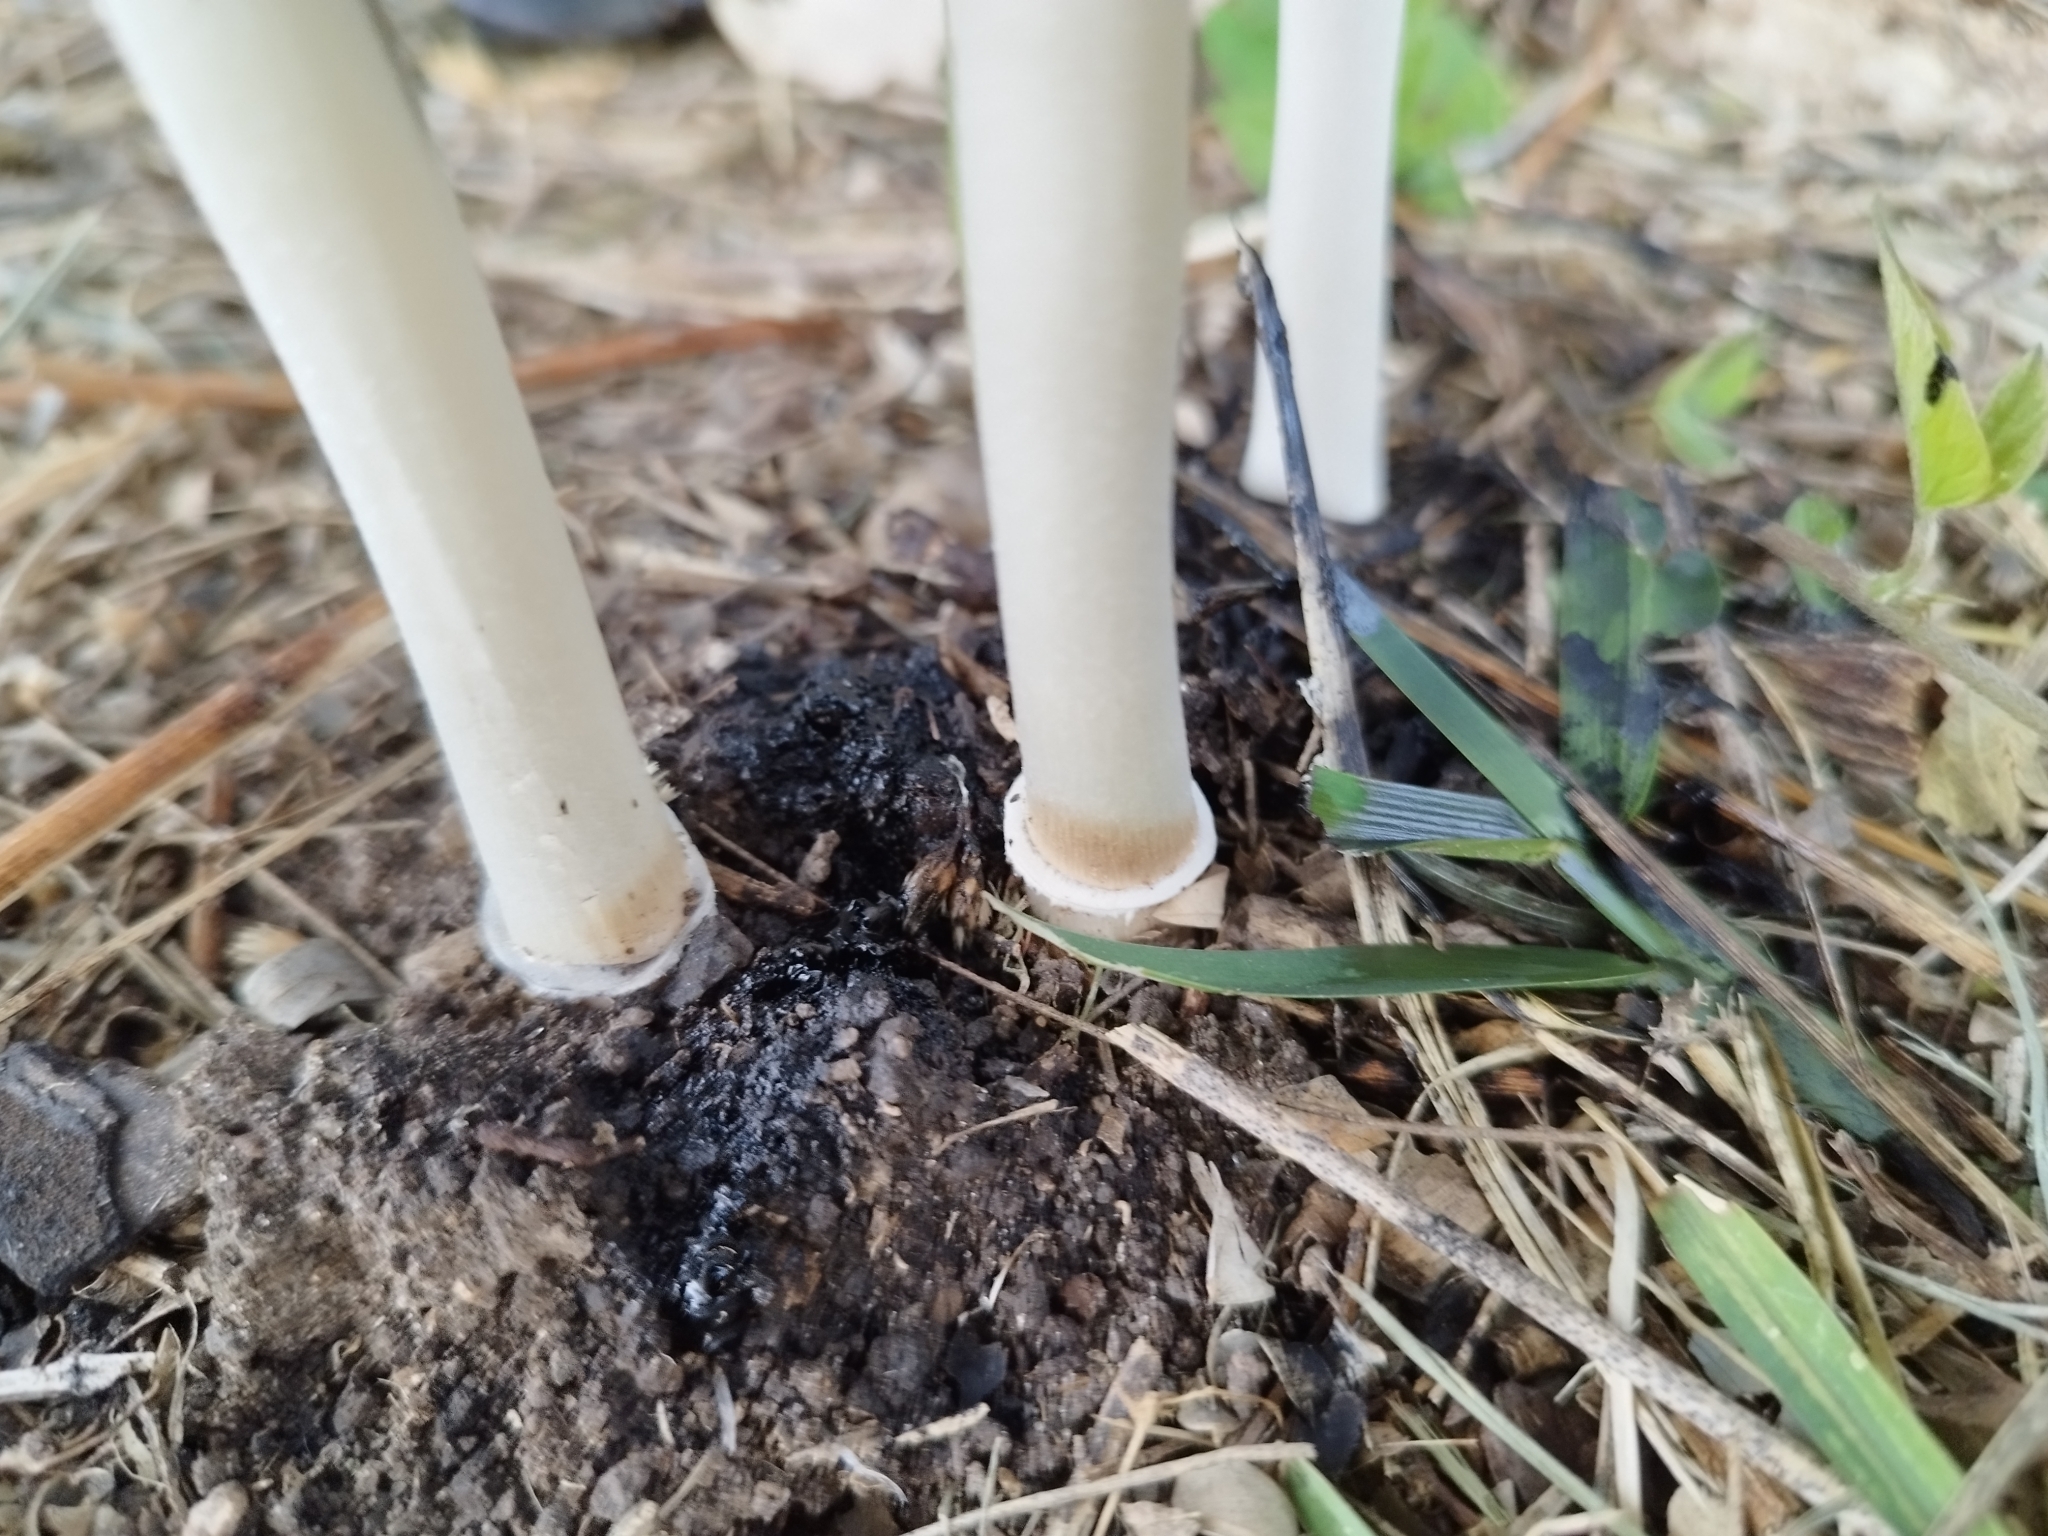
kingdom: Fungi
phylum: Basidiomycota
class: Agaricomycetes
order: Agaricales
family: Agaricaceae
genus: Coprinus
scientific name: Coprinus comatus
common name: Lawyer's wig
